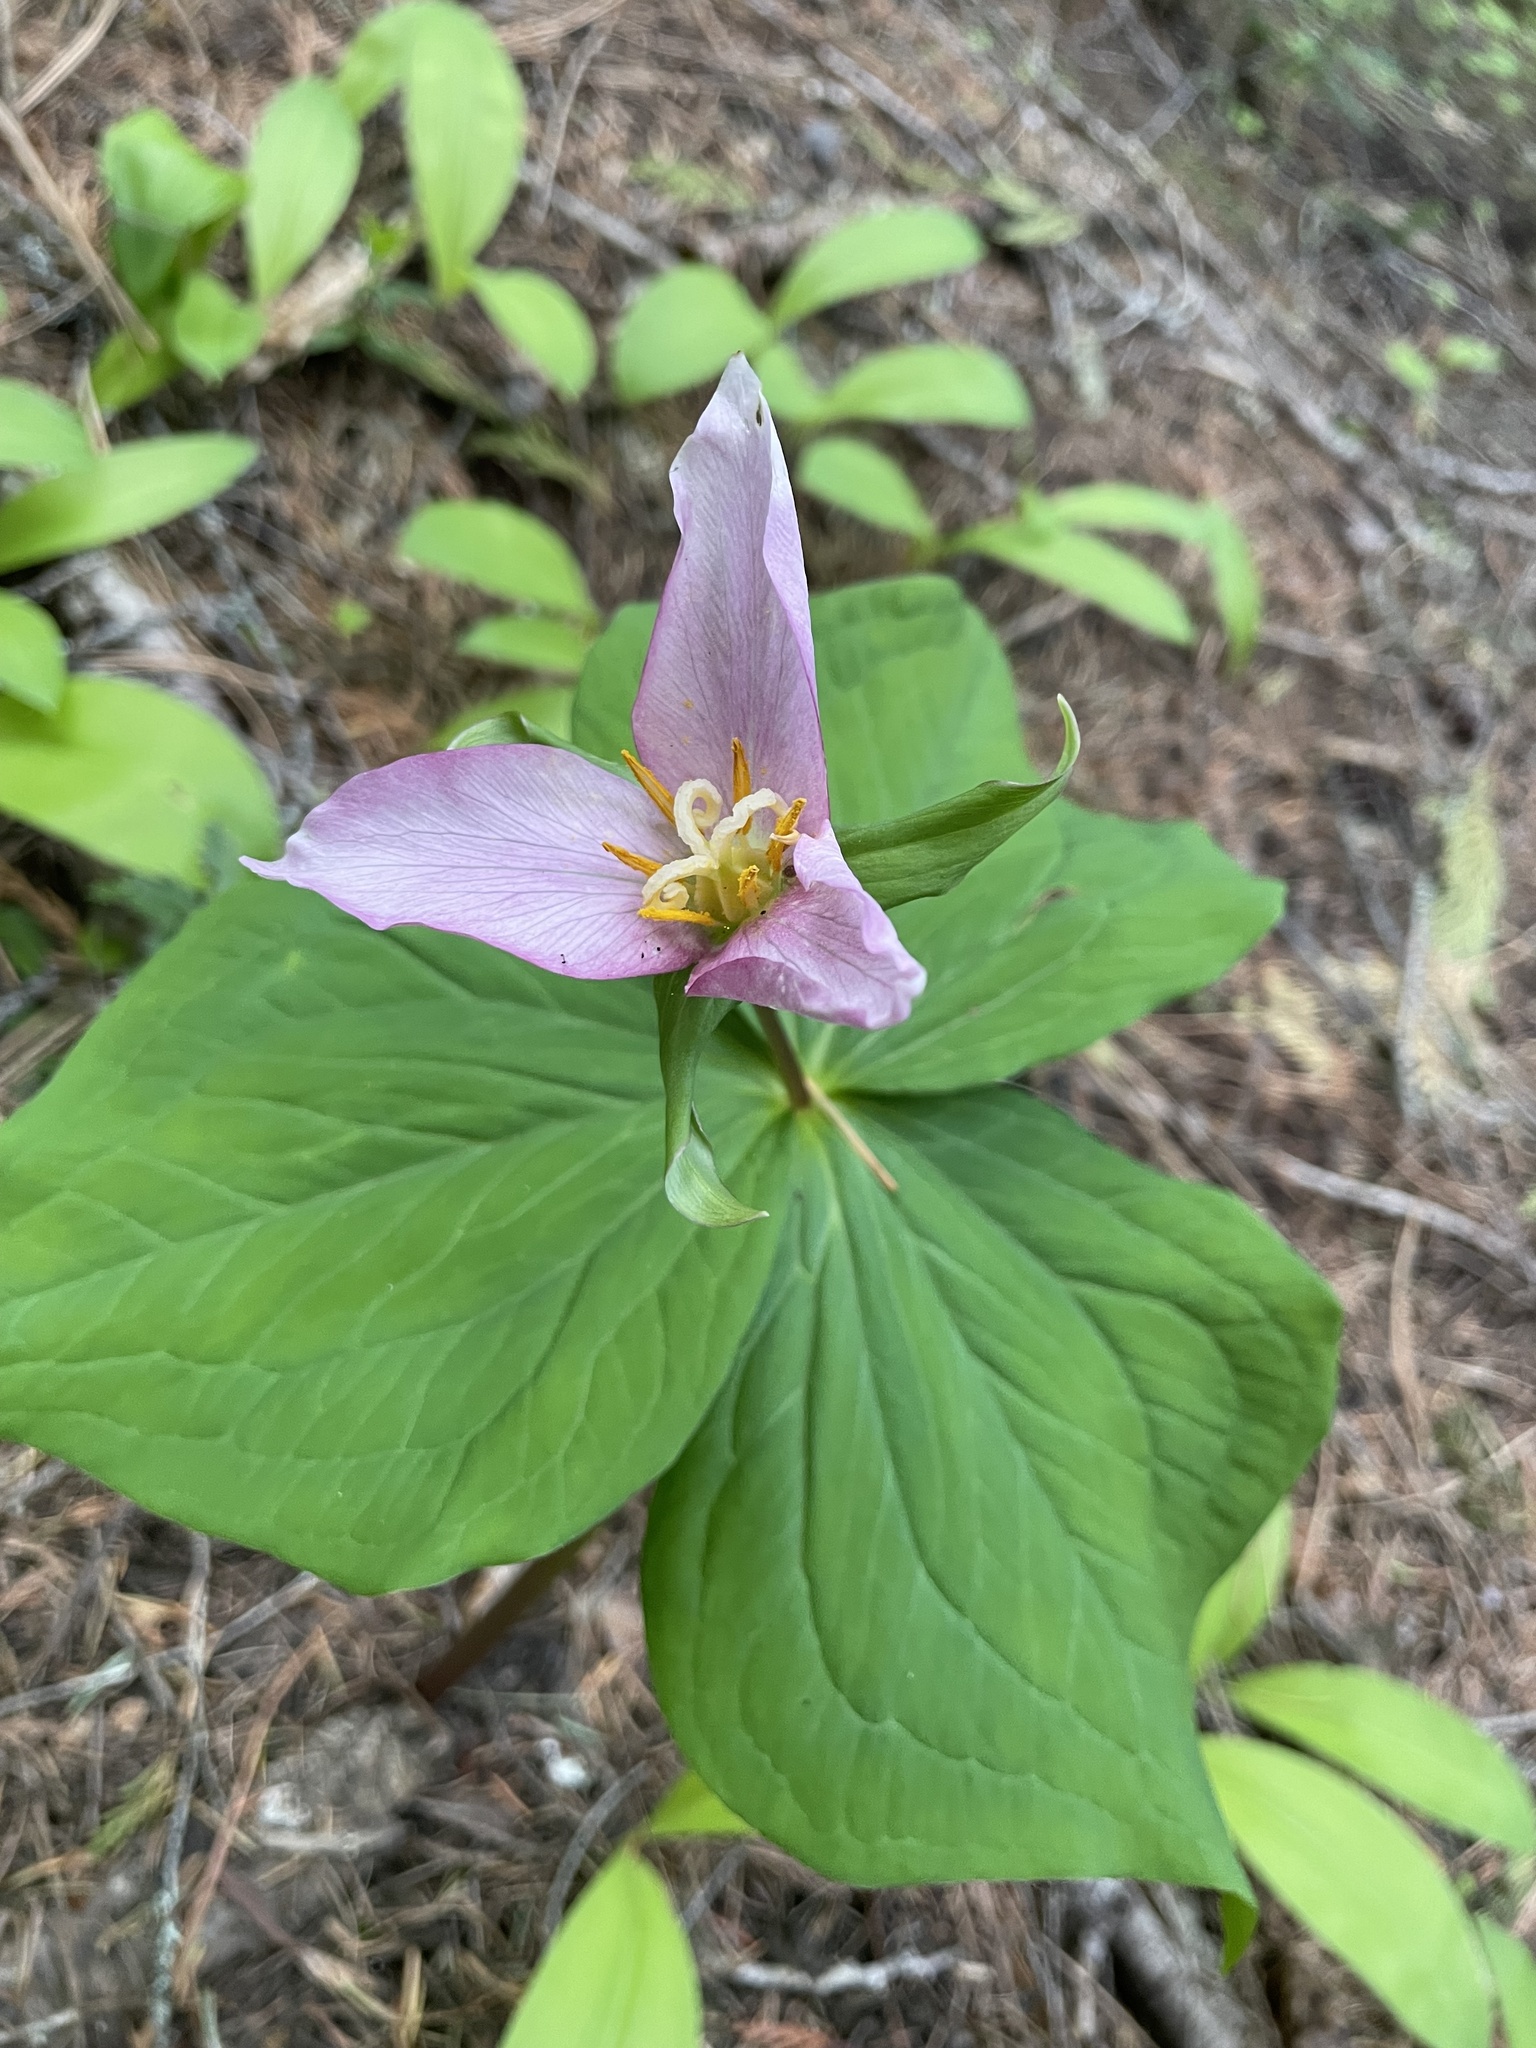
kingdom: Plantae
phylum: Tracheophyta
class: Liliopsida
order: Liliales
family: Melanthiaceae
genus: Trillium
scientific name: Trillium ovatum
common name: Pacific trillium
